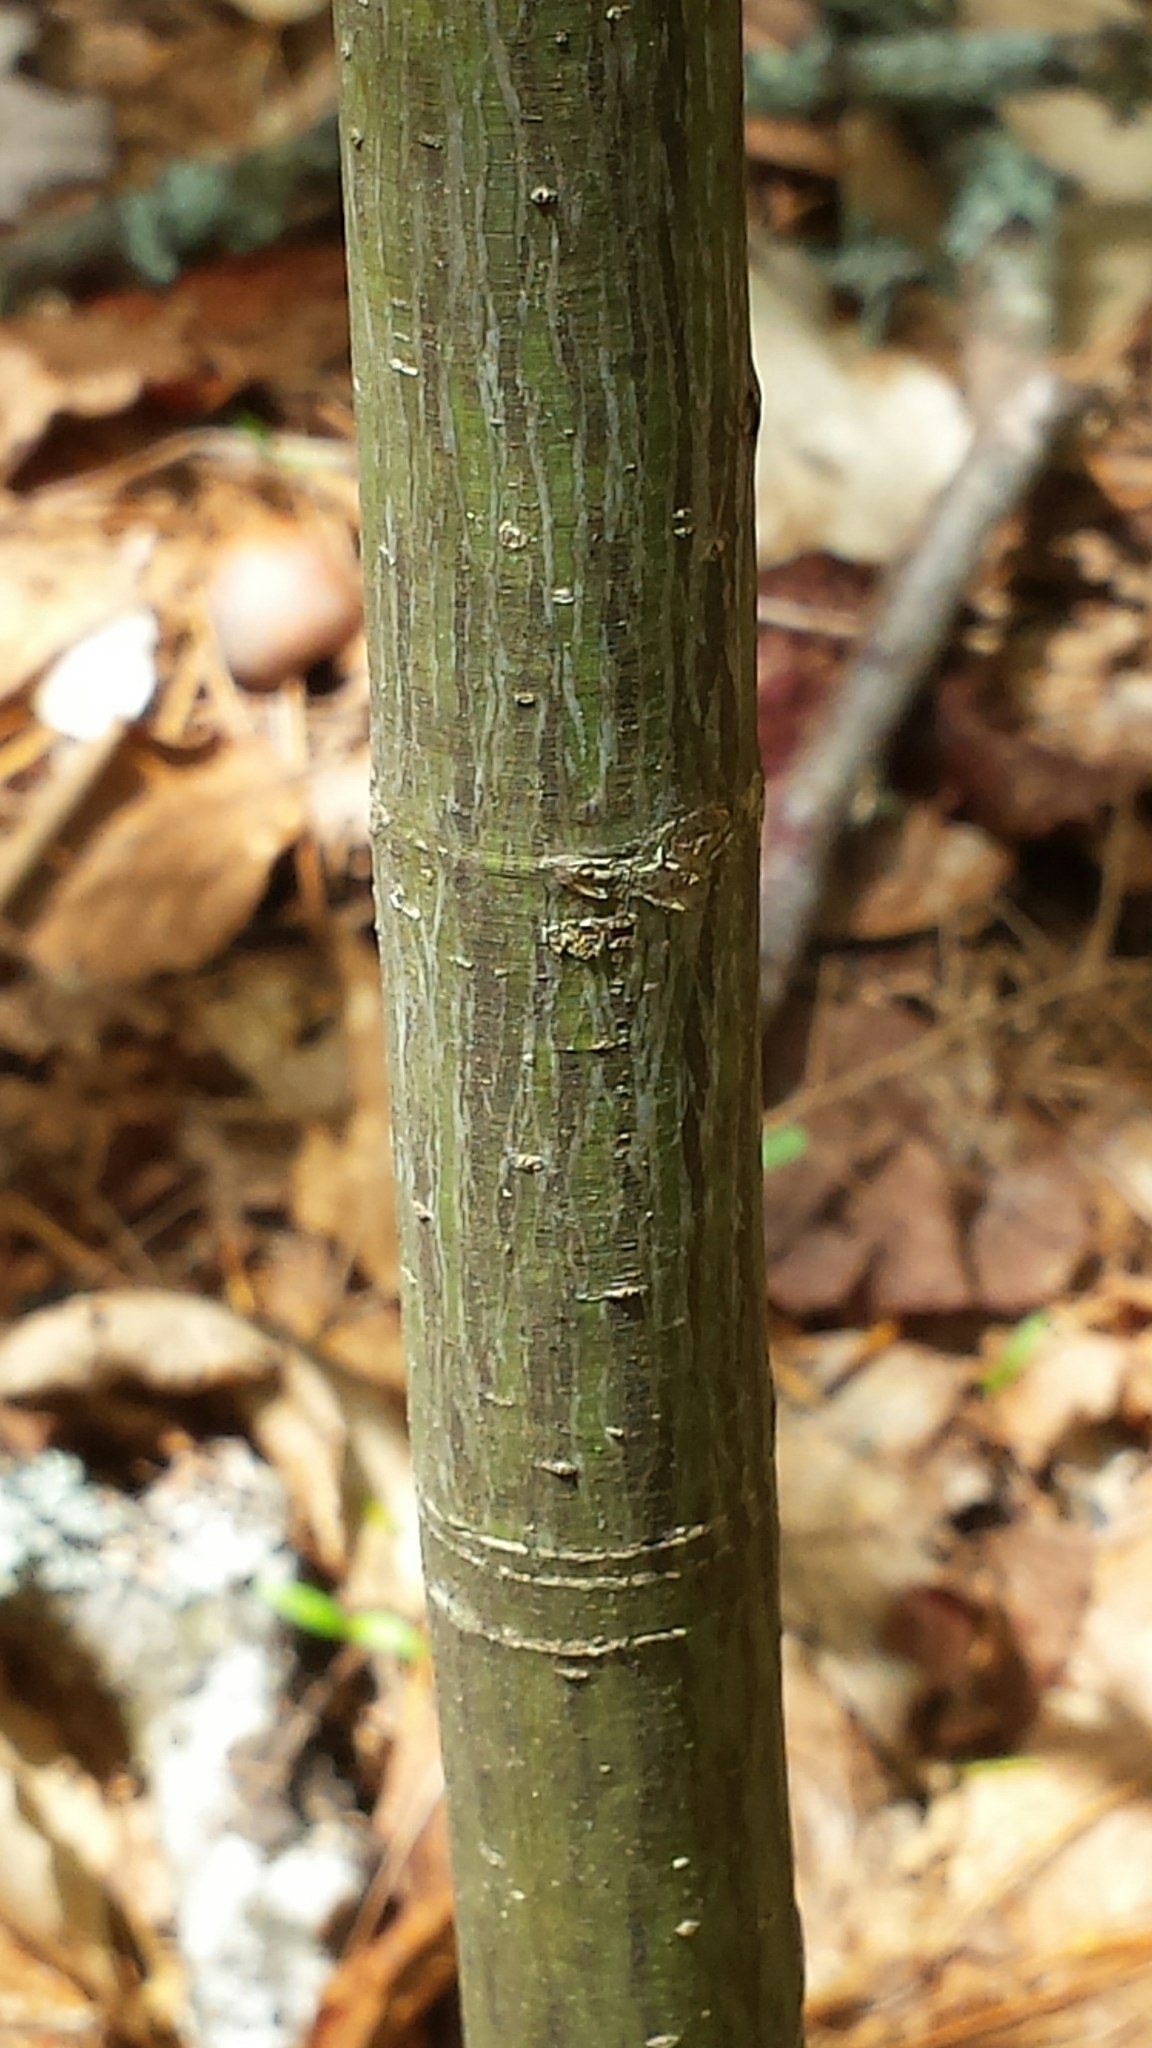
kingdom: Plantae
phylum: Tracheophyta
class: Magnoliopsida
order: Sapindales
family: Sapindaceae
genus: Acer
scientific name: Acer pensylvanicum
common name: Moosewood
